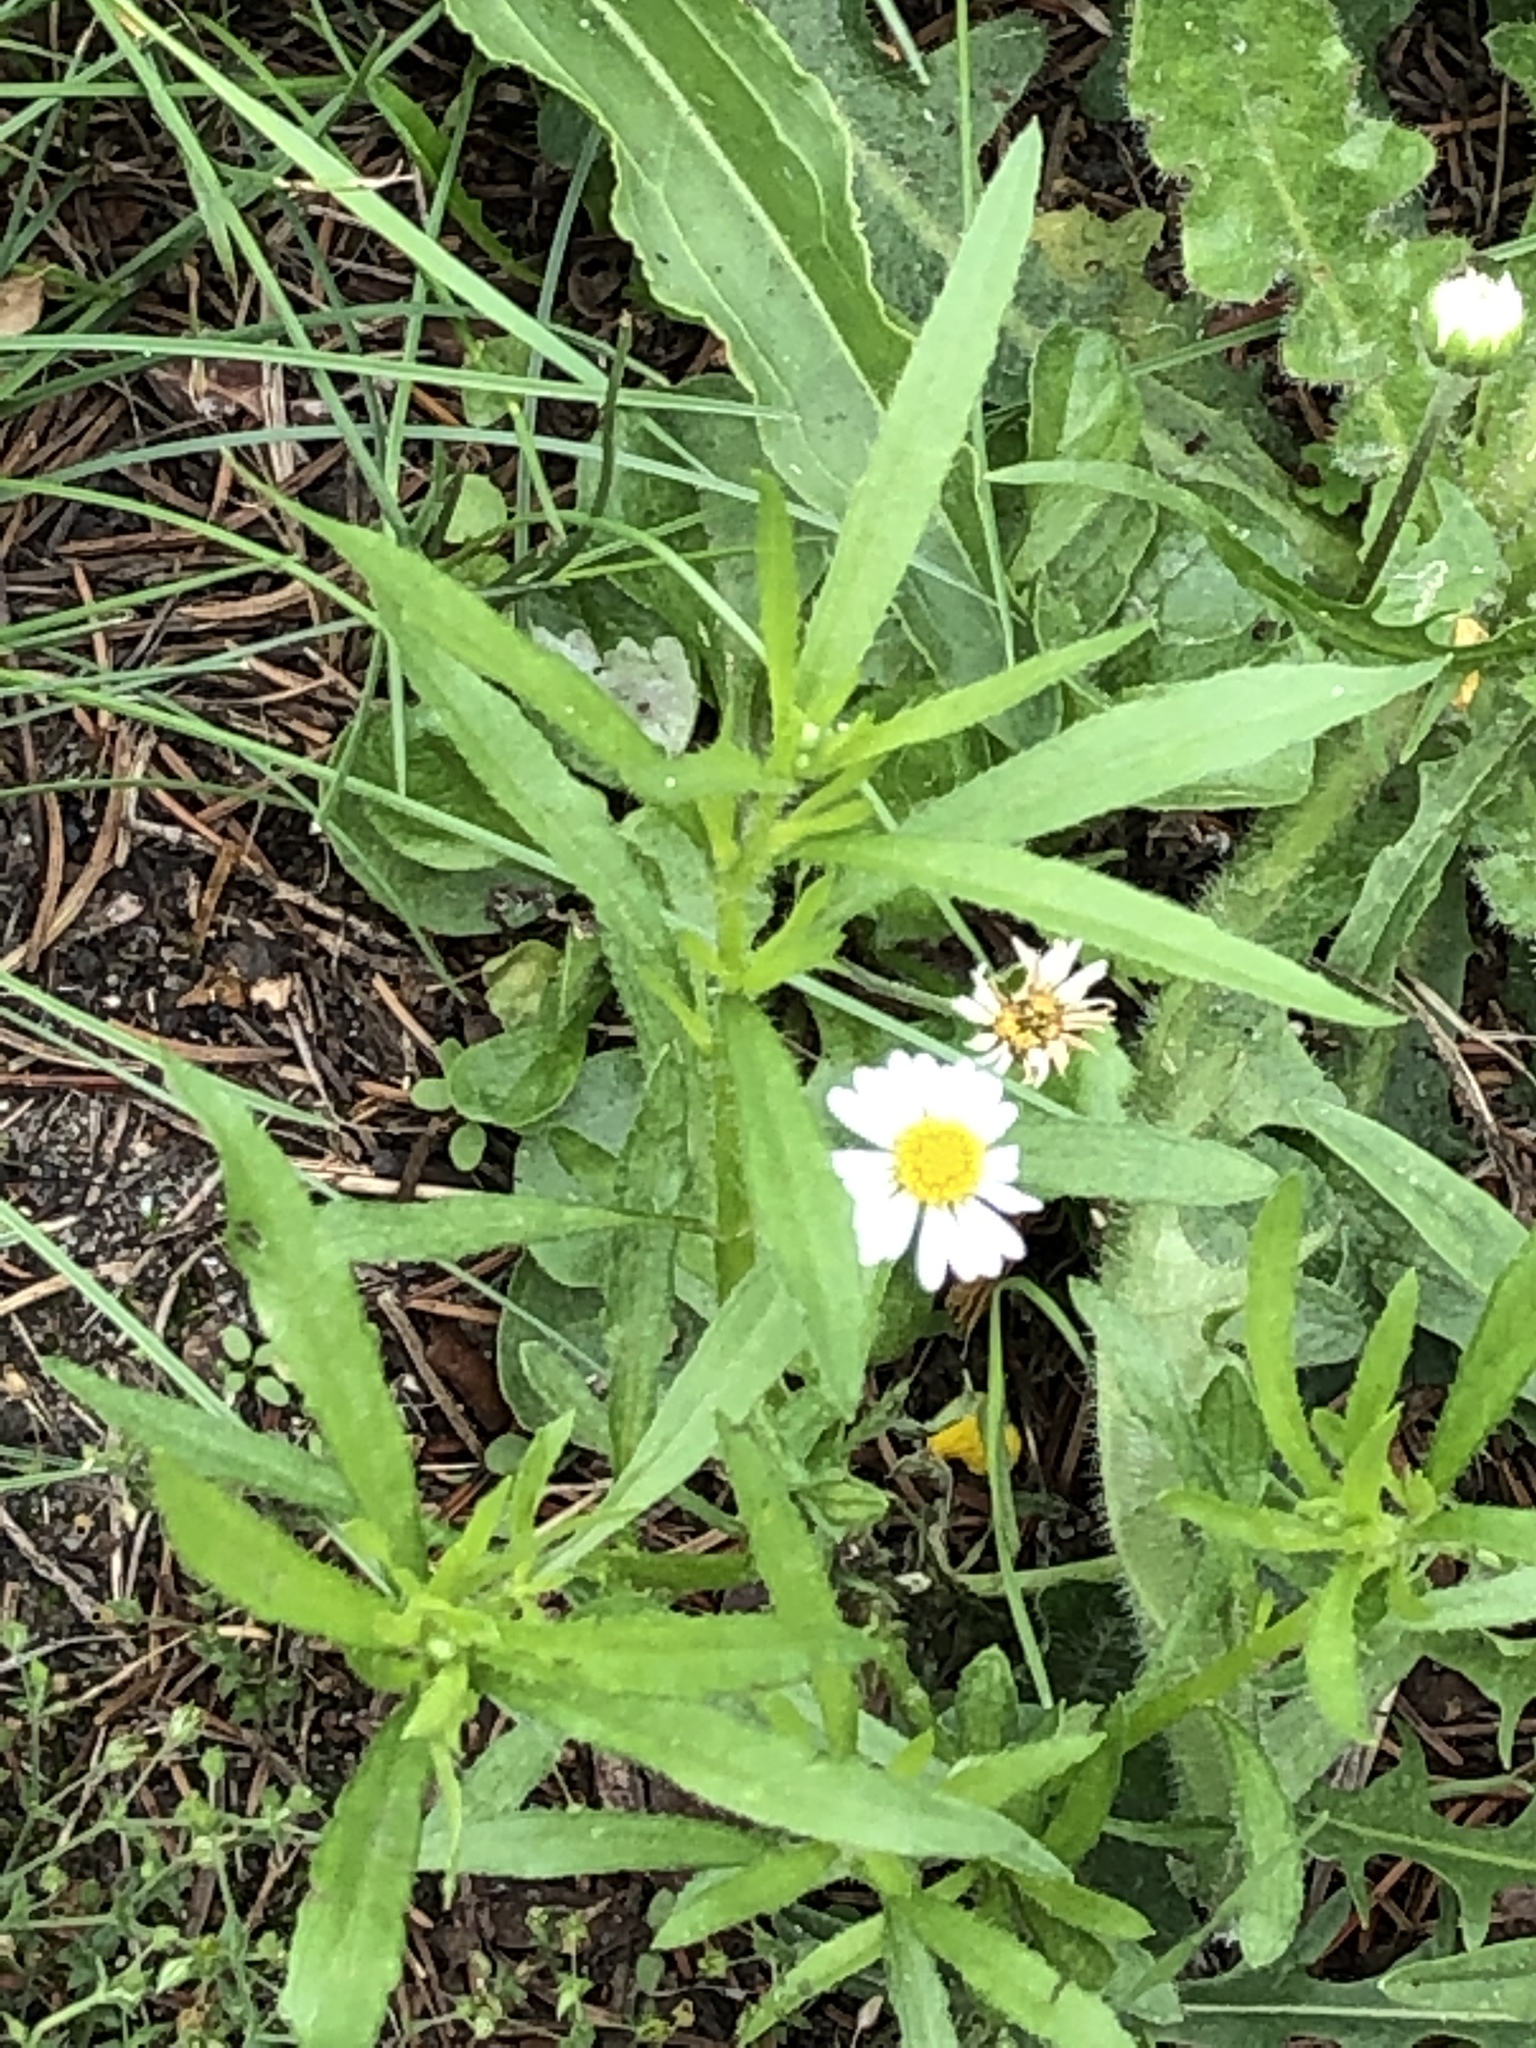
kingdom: Plantae
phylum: Tracheophyta
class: Magnoliopsida
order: Asterales
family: Asteraceae
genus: Bellis
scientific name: Bellis perennis
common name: Lawndaisy
